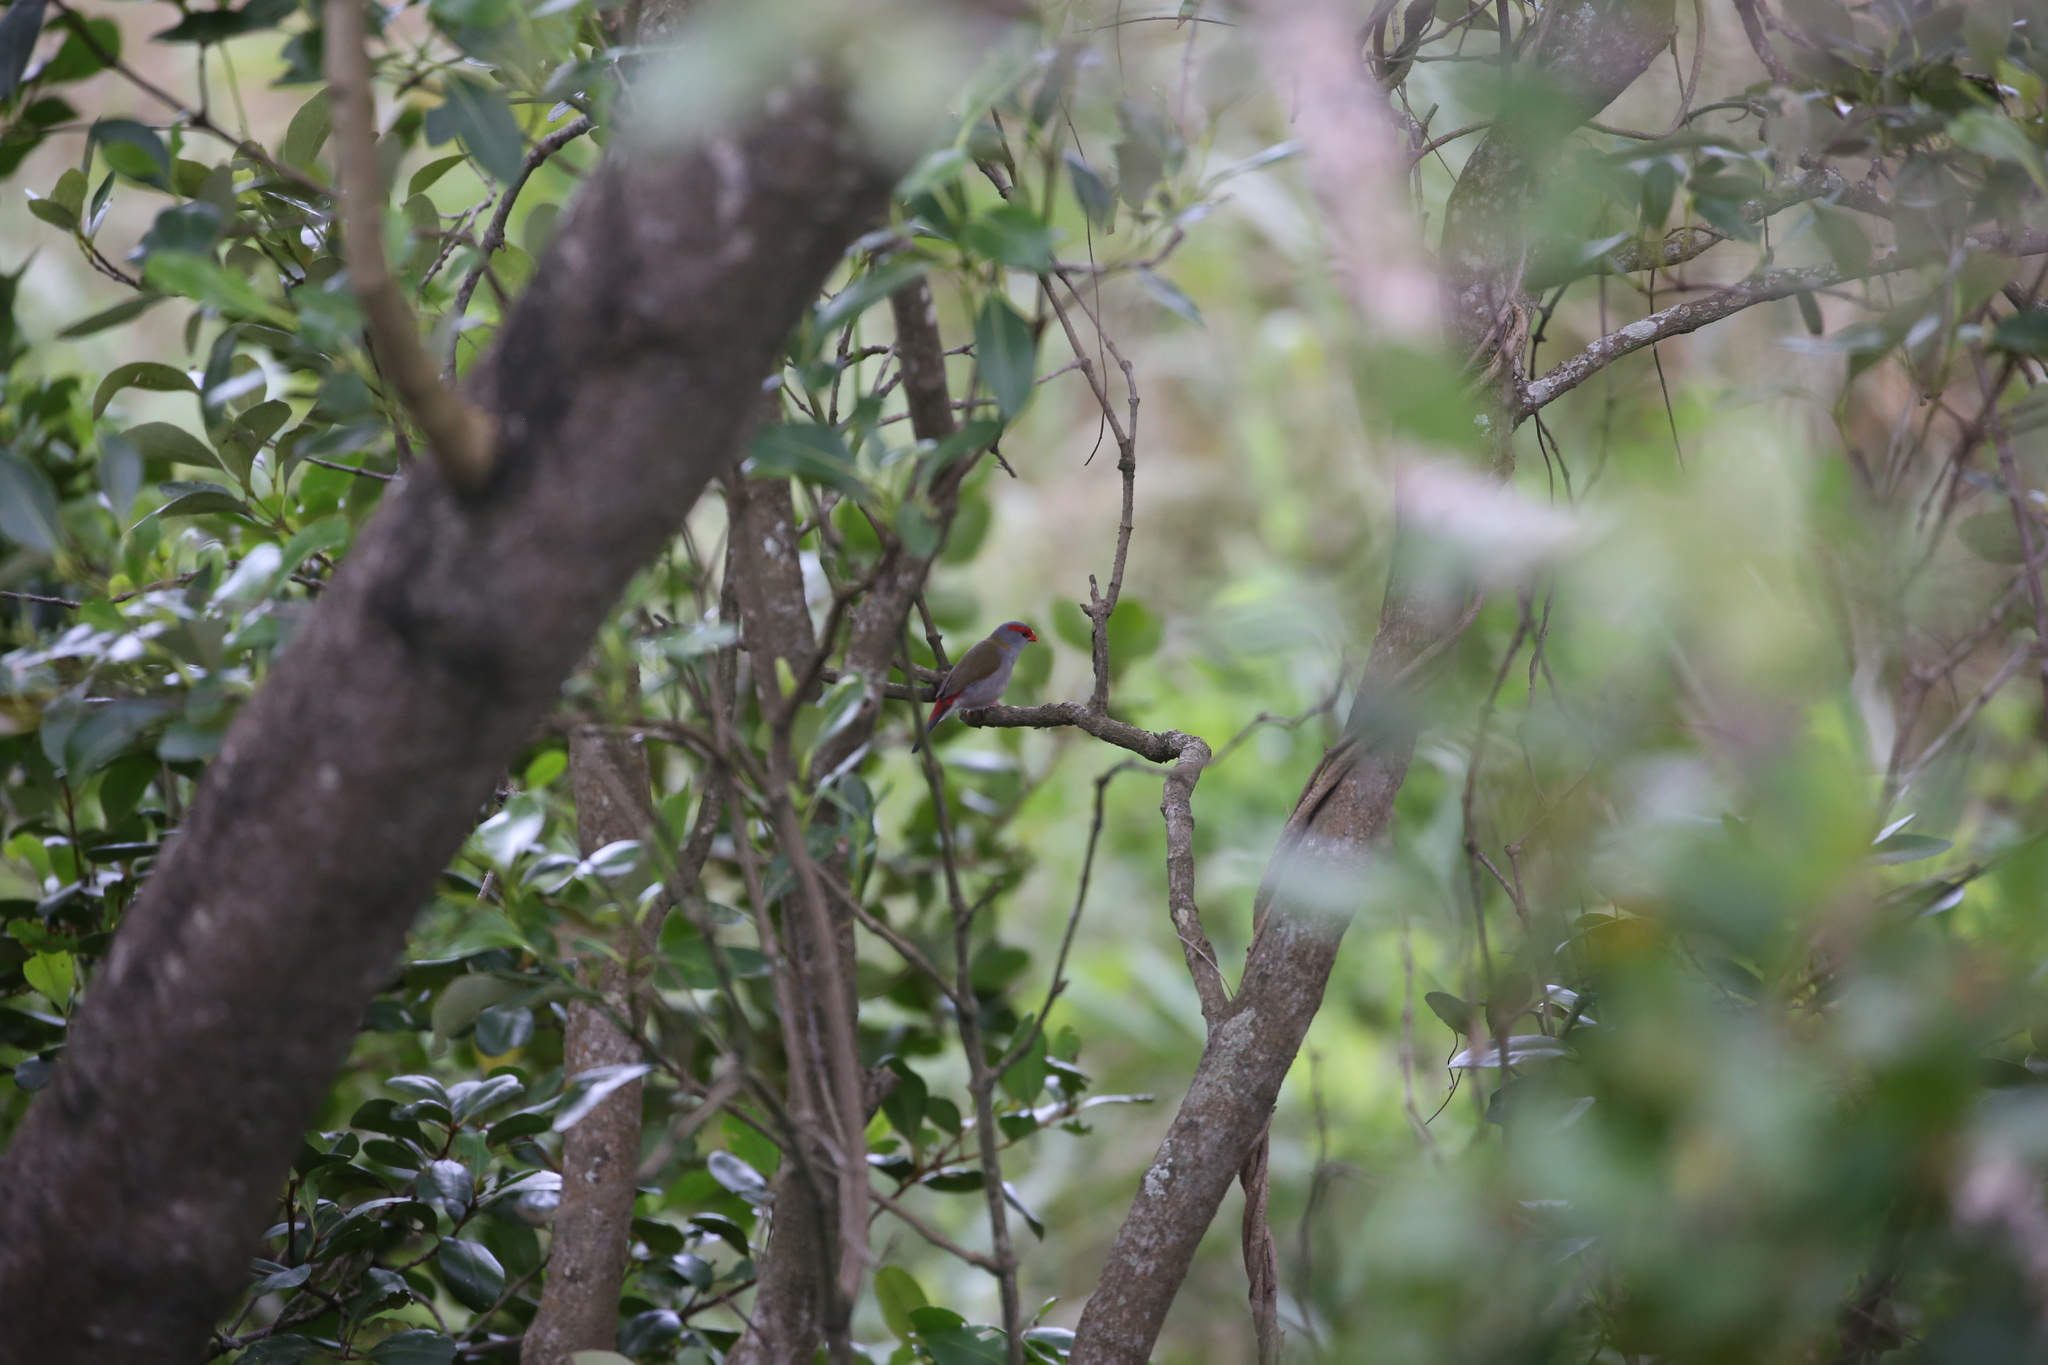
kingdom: Animalia
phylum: Chordata
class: Aves
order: Passeriformes
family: Estrildidae
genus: Neochmia
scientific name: Neochmia temporalis
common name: Red-browed finch
